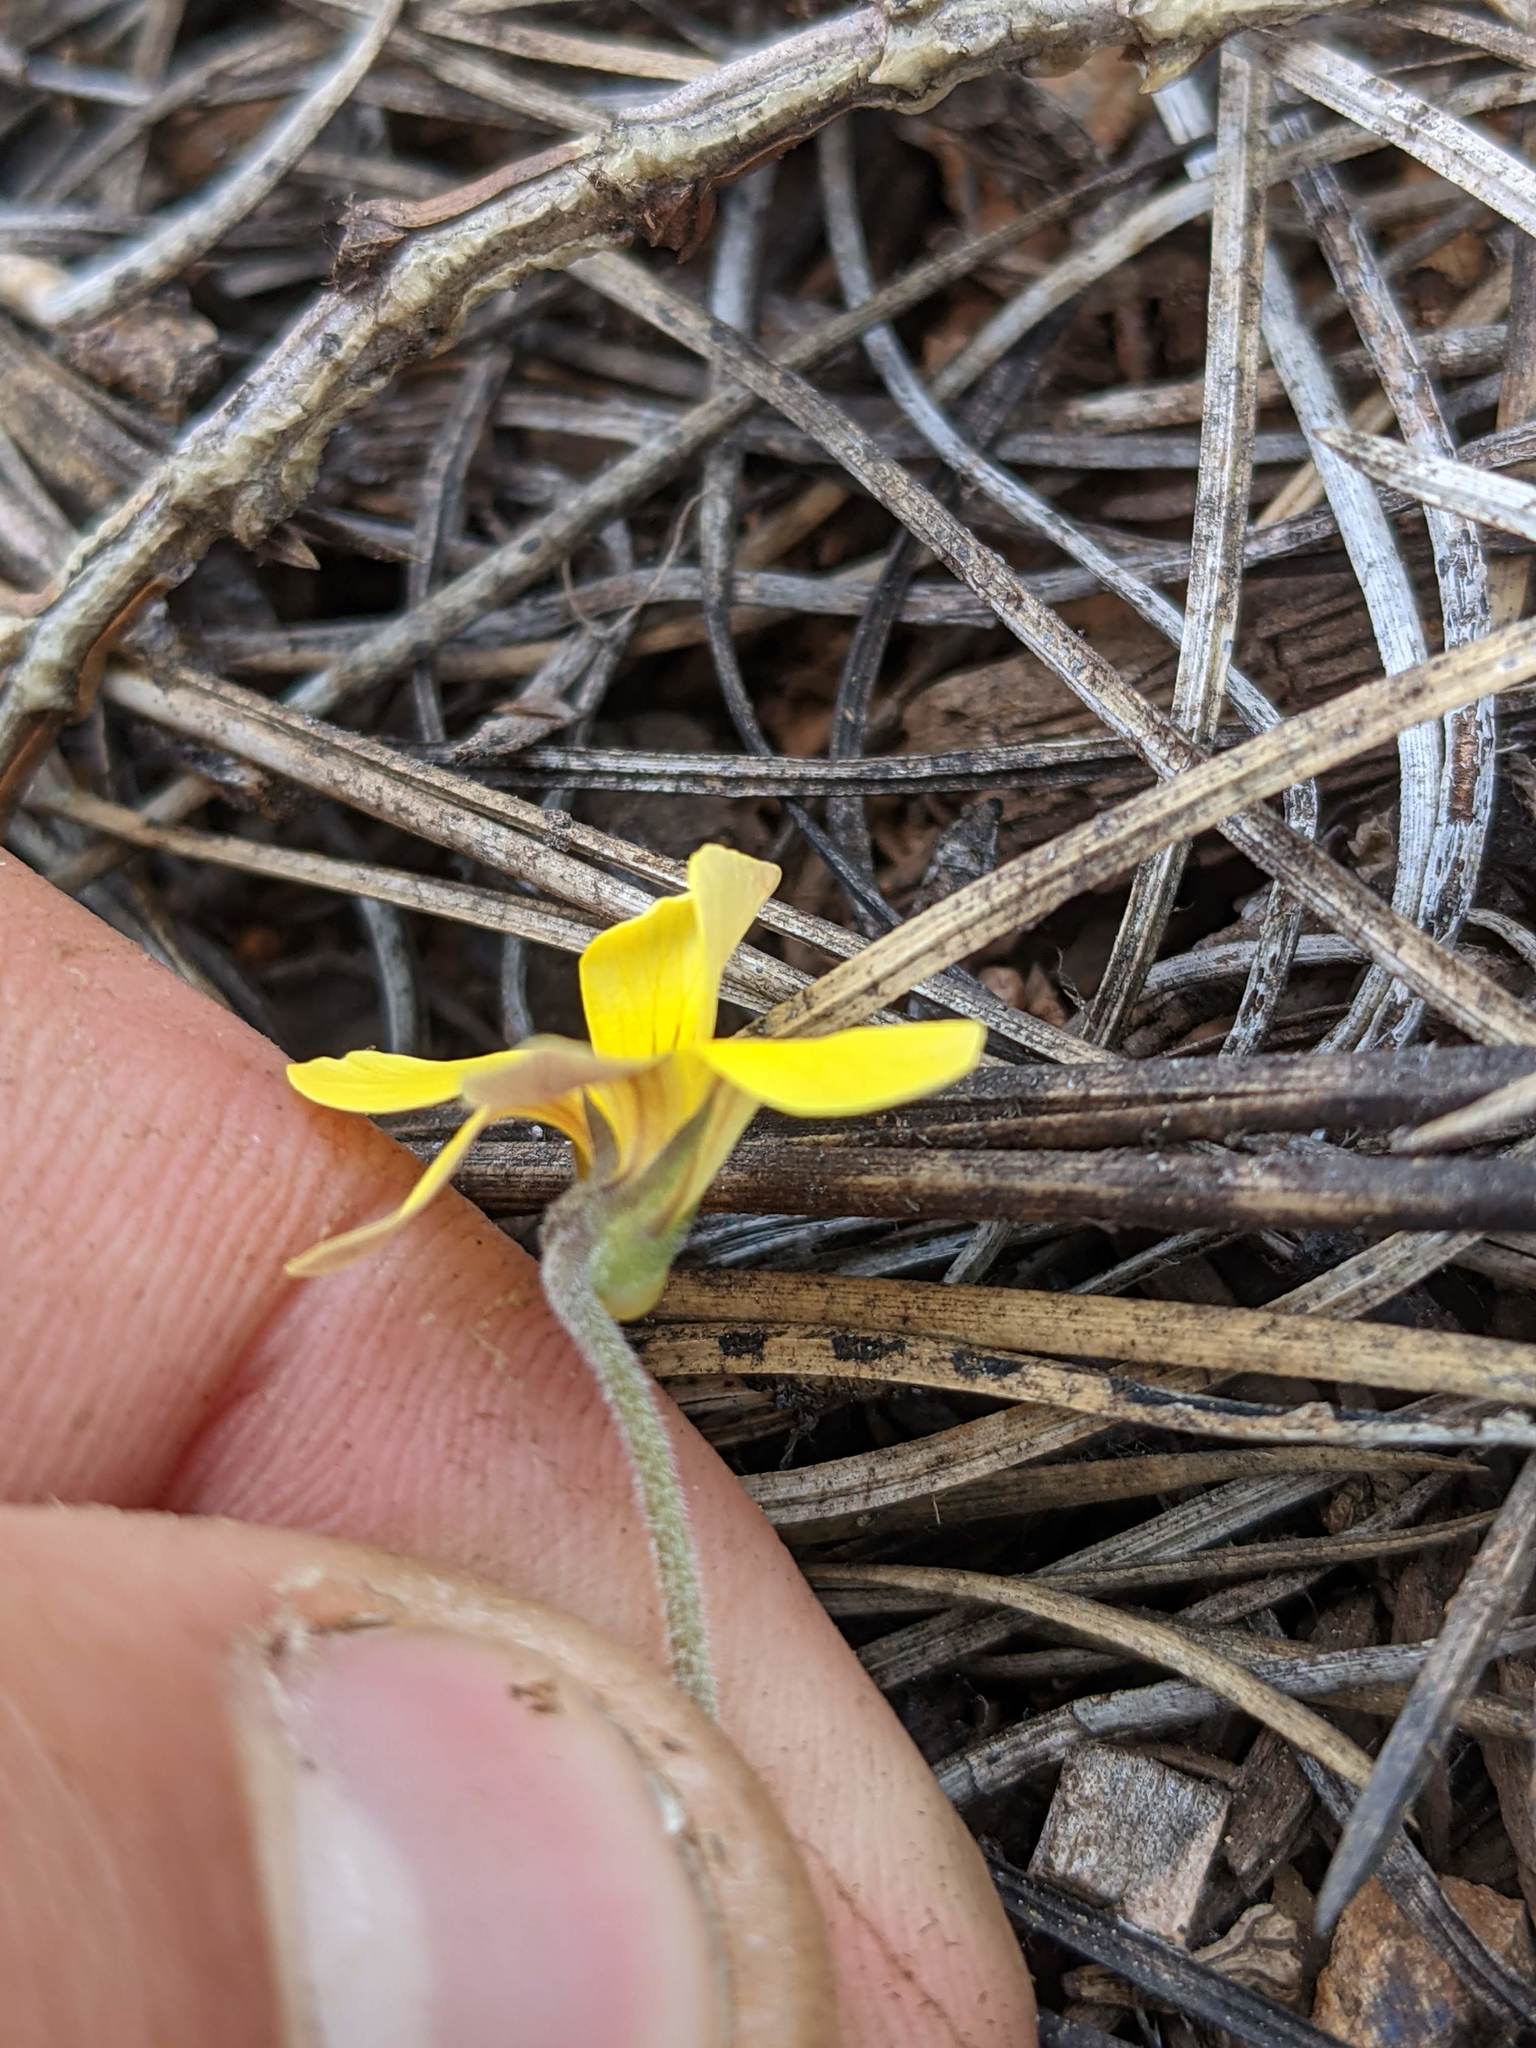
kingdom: Plantae
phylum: Tracheophyta
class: Magnoliopsida
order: Malpighiales
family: Violaceae
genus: Viola
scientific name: Viola purpurea
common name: Pine violet
